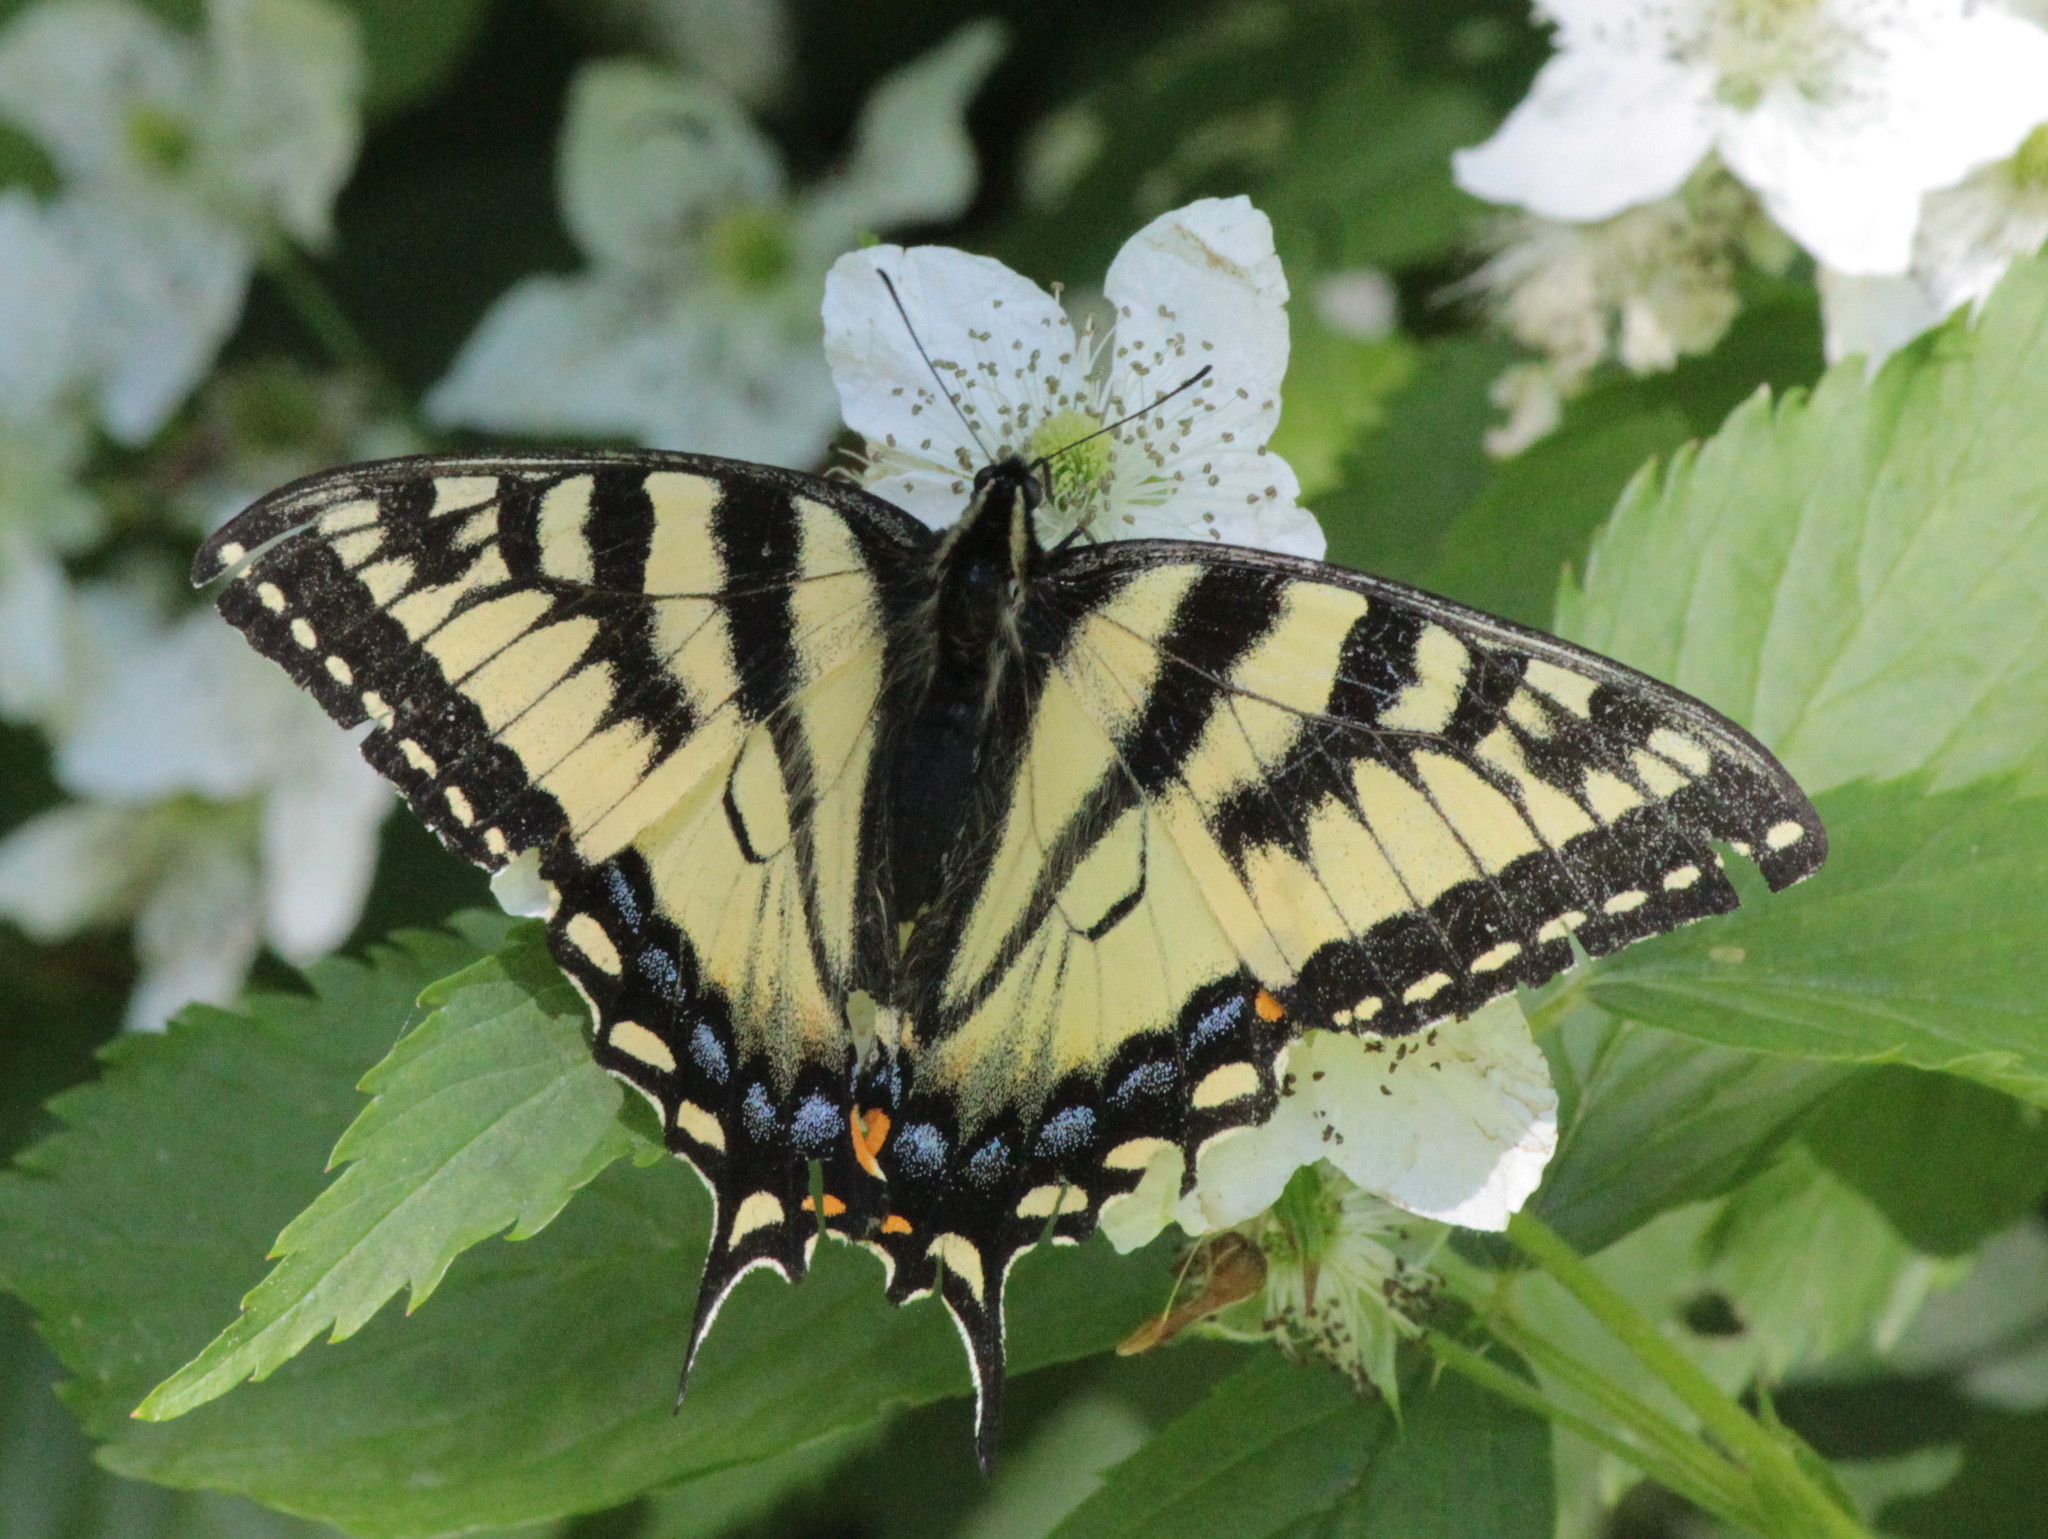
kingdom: Animalia
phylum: Arthropoda
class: Insecta
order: Lepidoptera
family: Papilionidae
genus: Papilio
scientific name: Papilio canadensis
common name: Canadian tiger swallowtail
